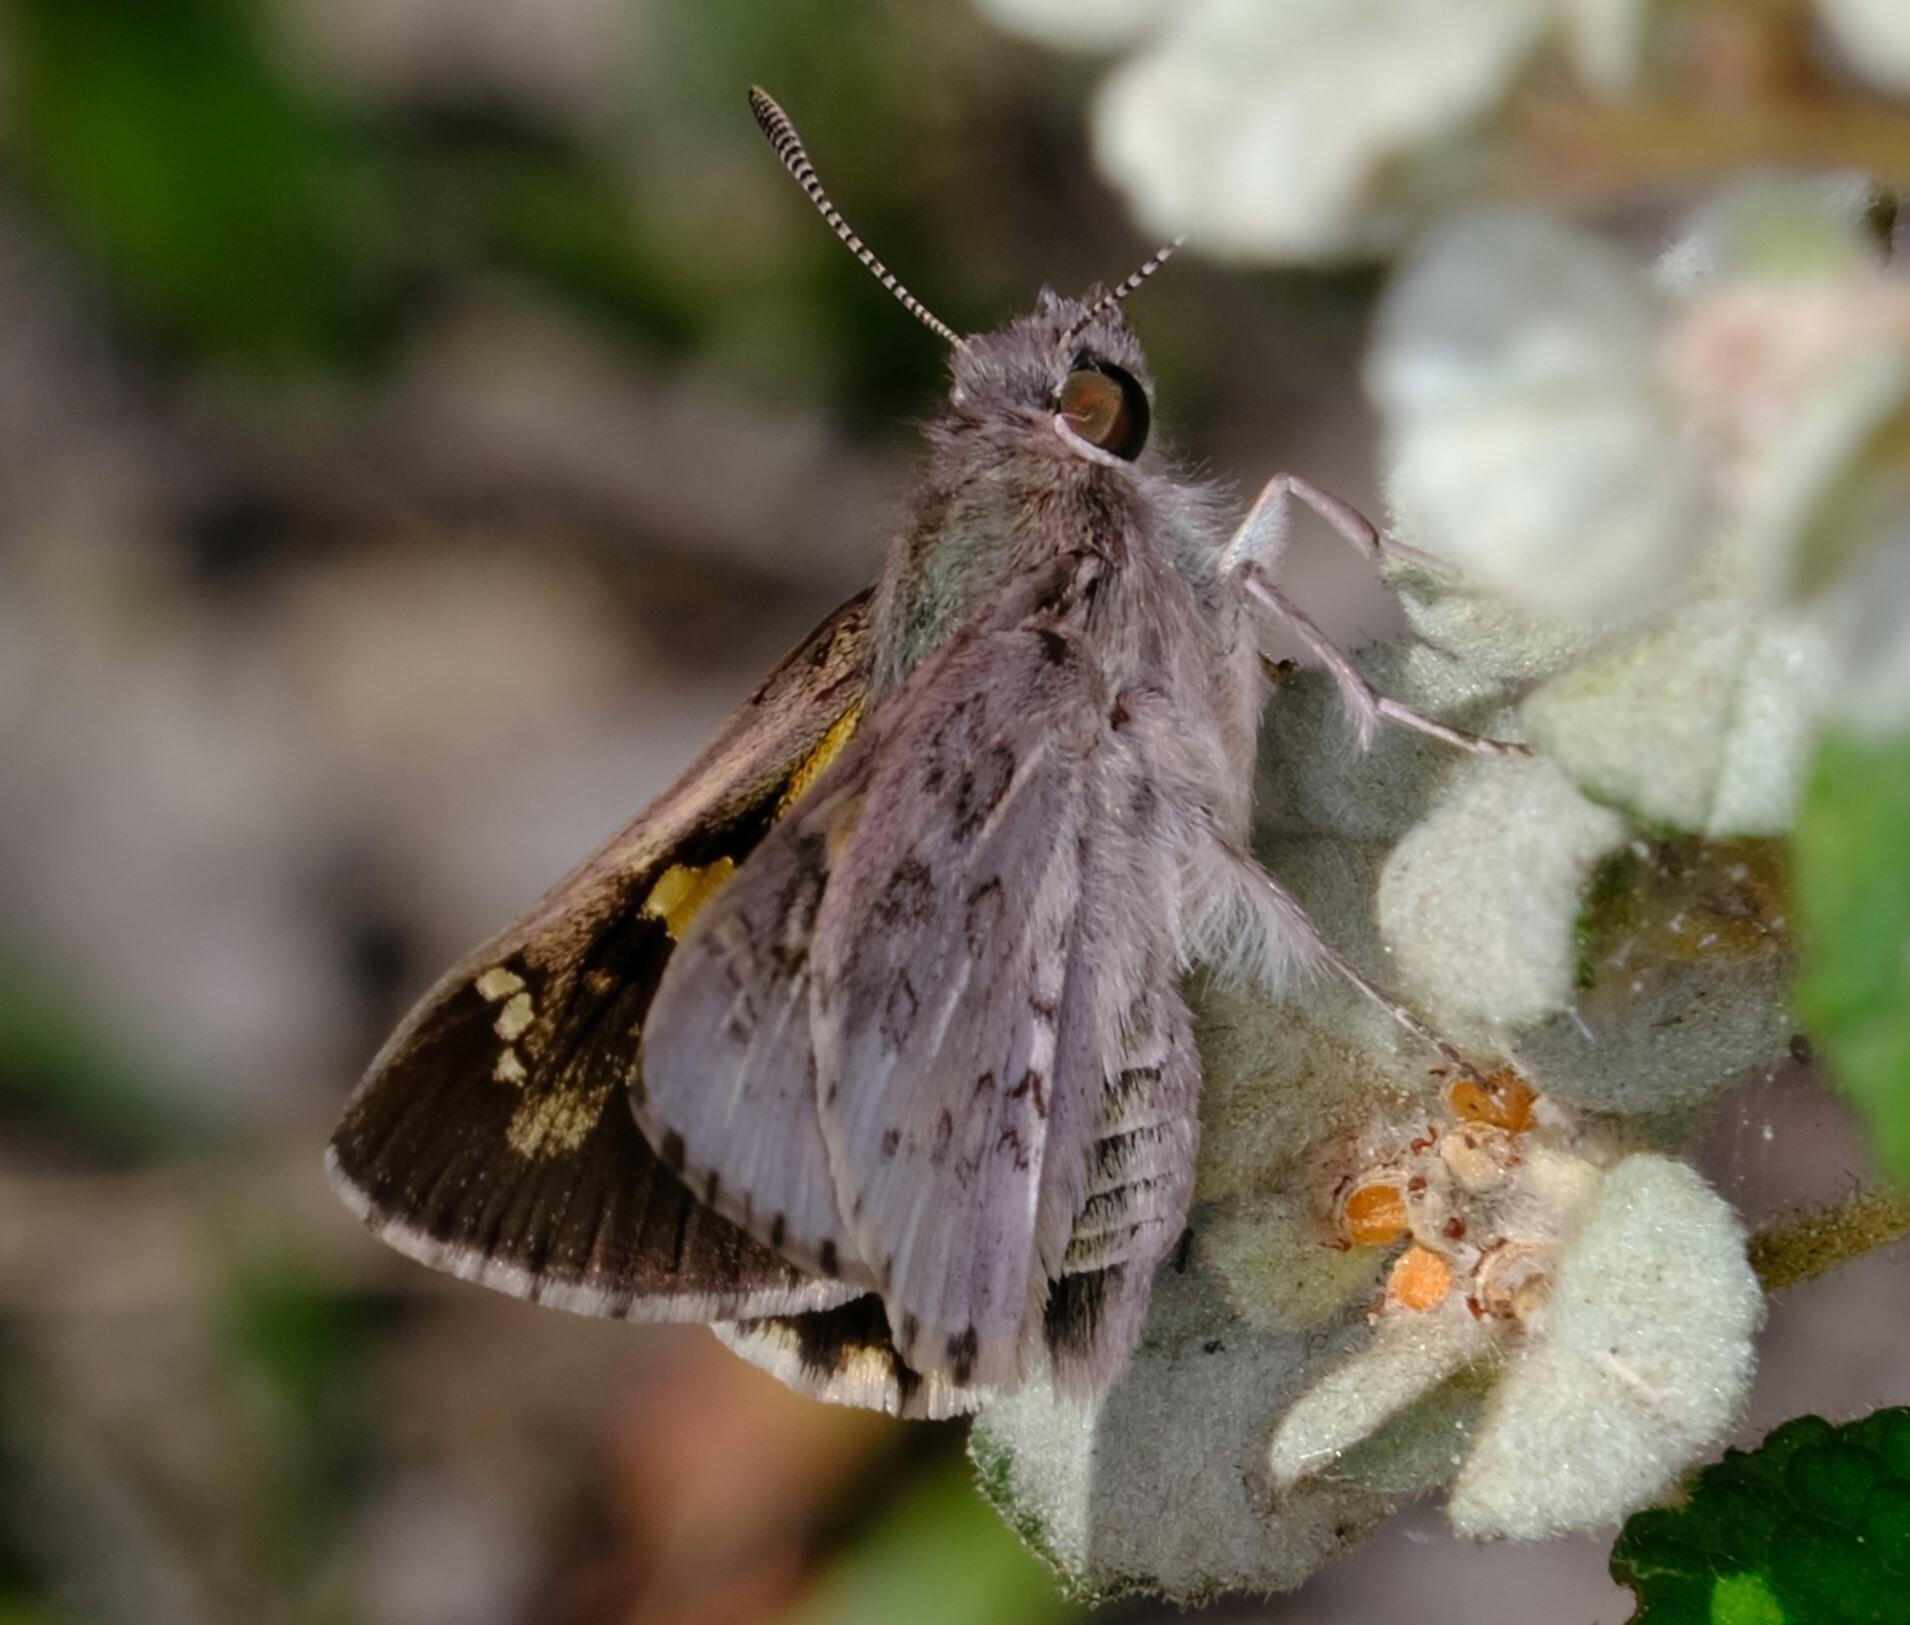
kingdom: Animalia
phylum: Arthropoda
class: Insecta
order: Lepidoptera
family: Hesperiidae
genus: Trapezites
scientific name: Trapezites phigalioides
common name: Montane ochre
